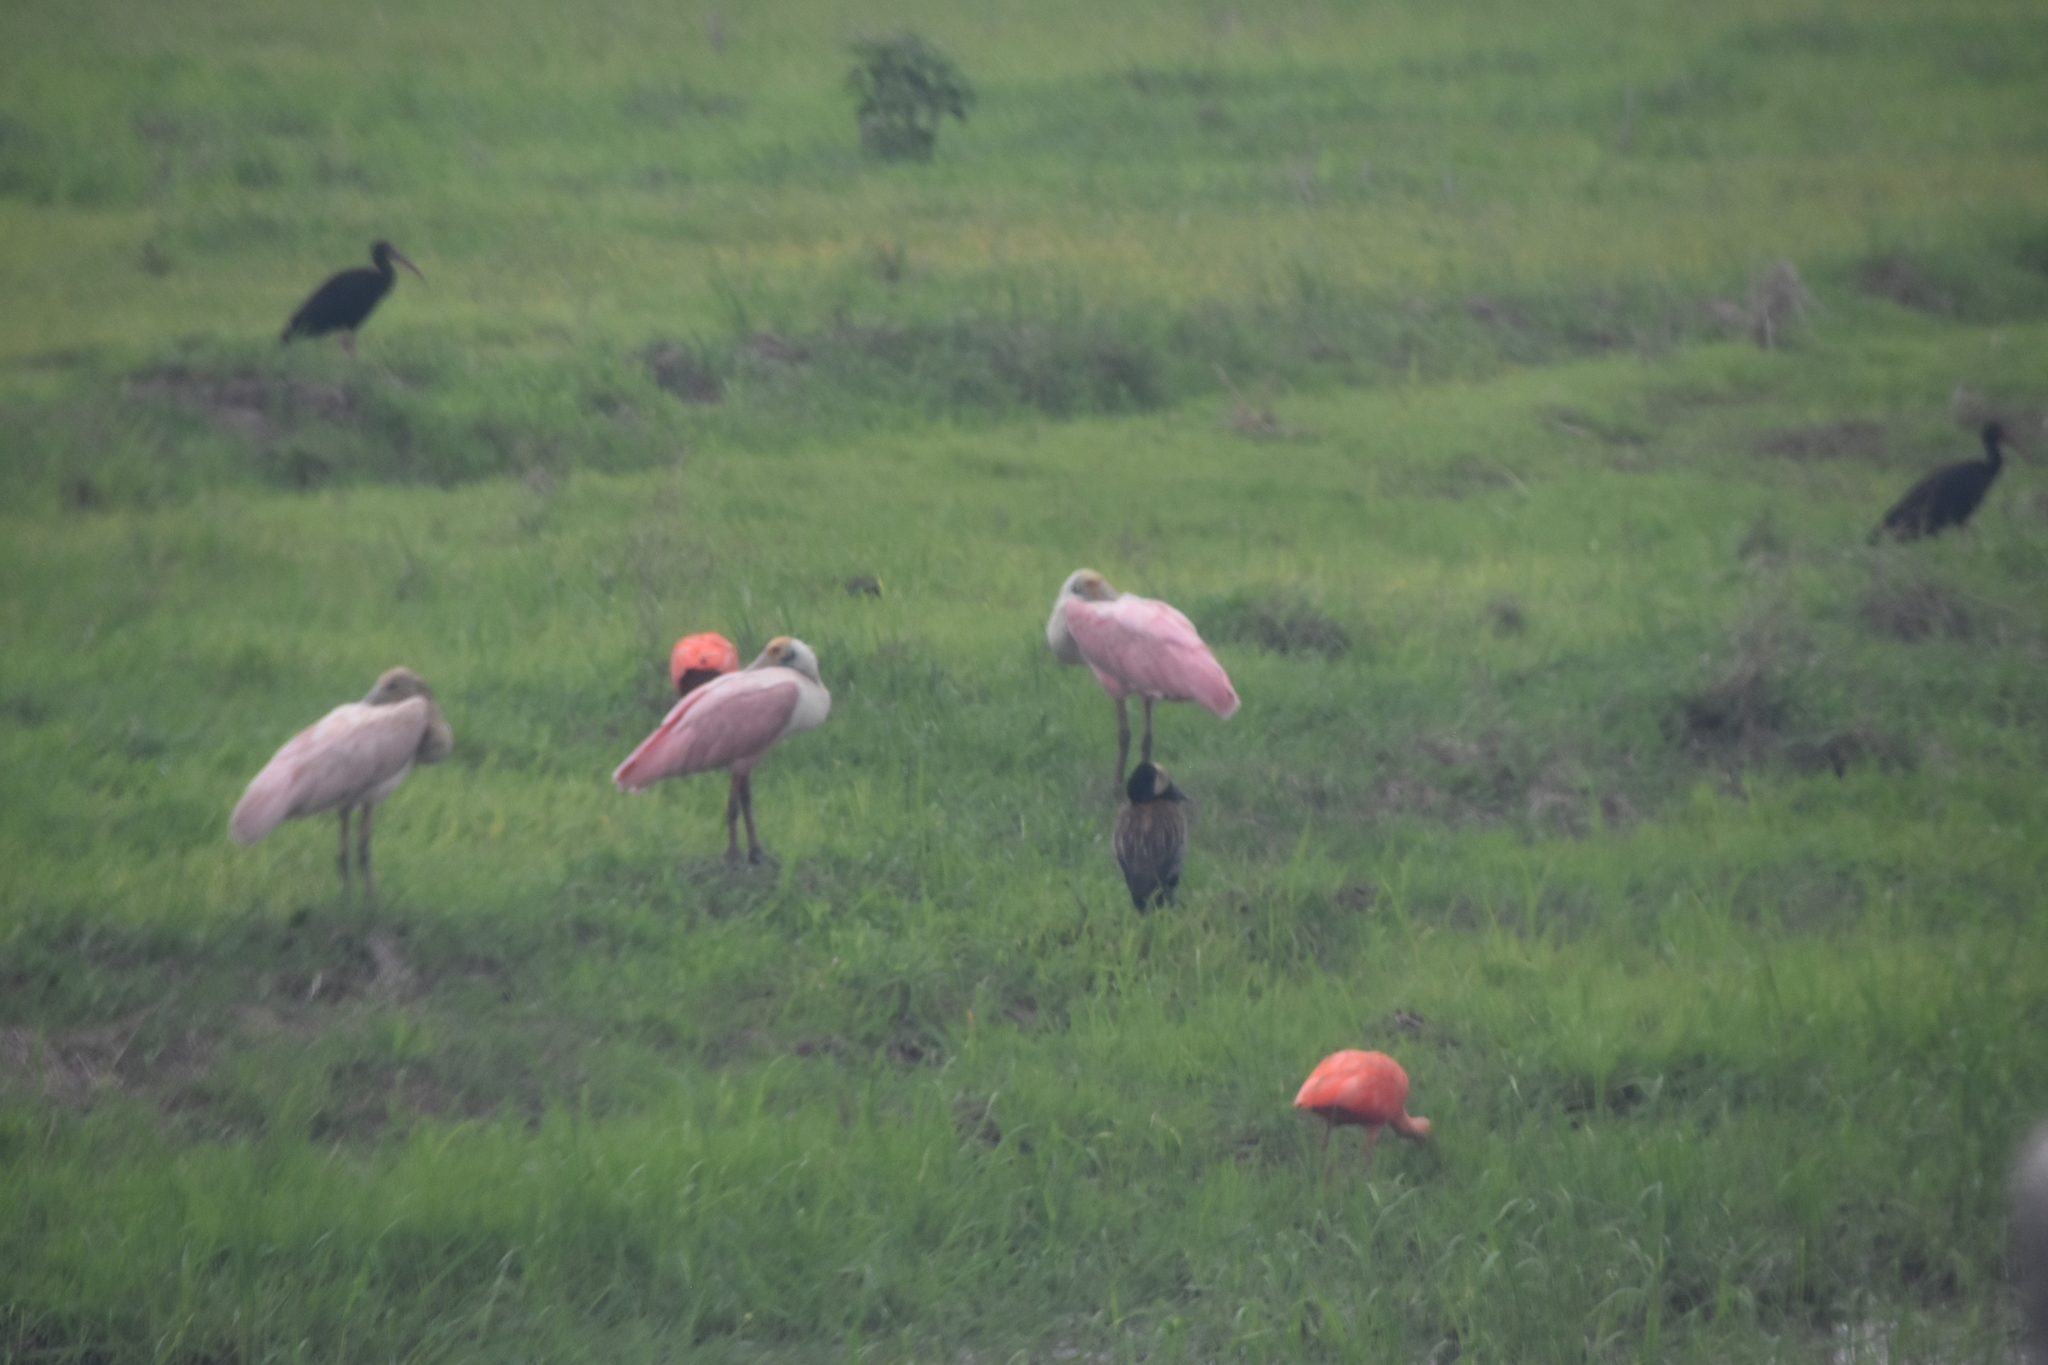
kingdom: Animalia
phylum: Chordata
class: Aves
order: Pelecaniformes
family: Threskiornithidae
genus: Platalea
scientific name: Platalea ajaja
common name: Roseate spoonbill
